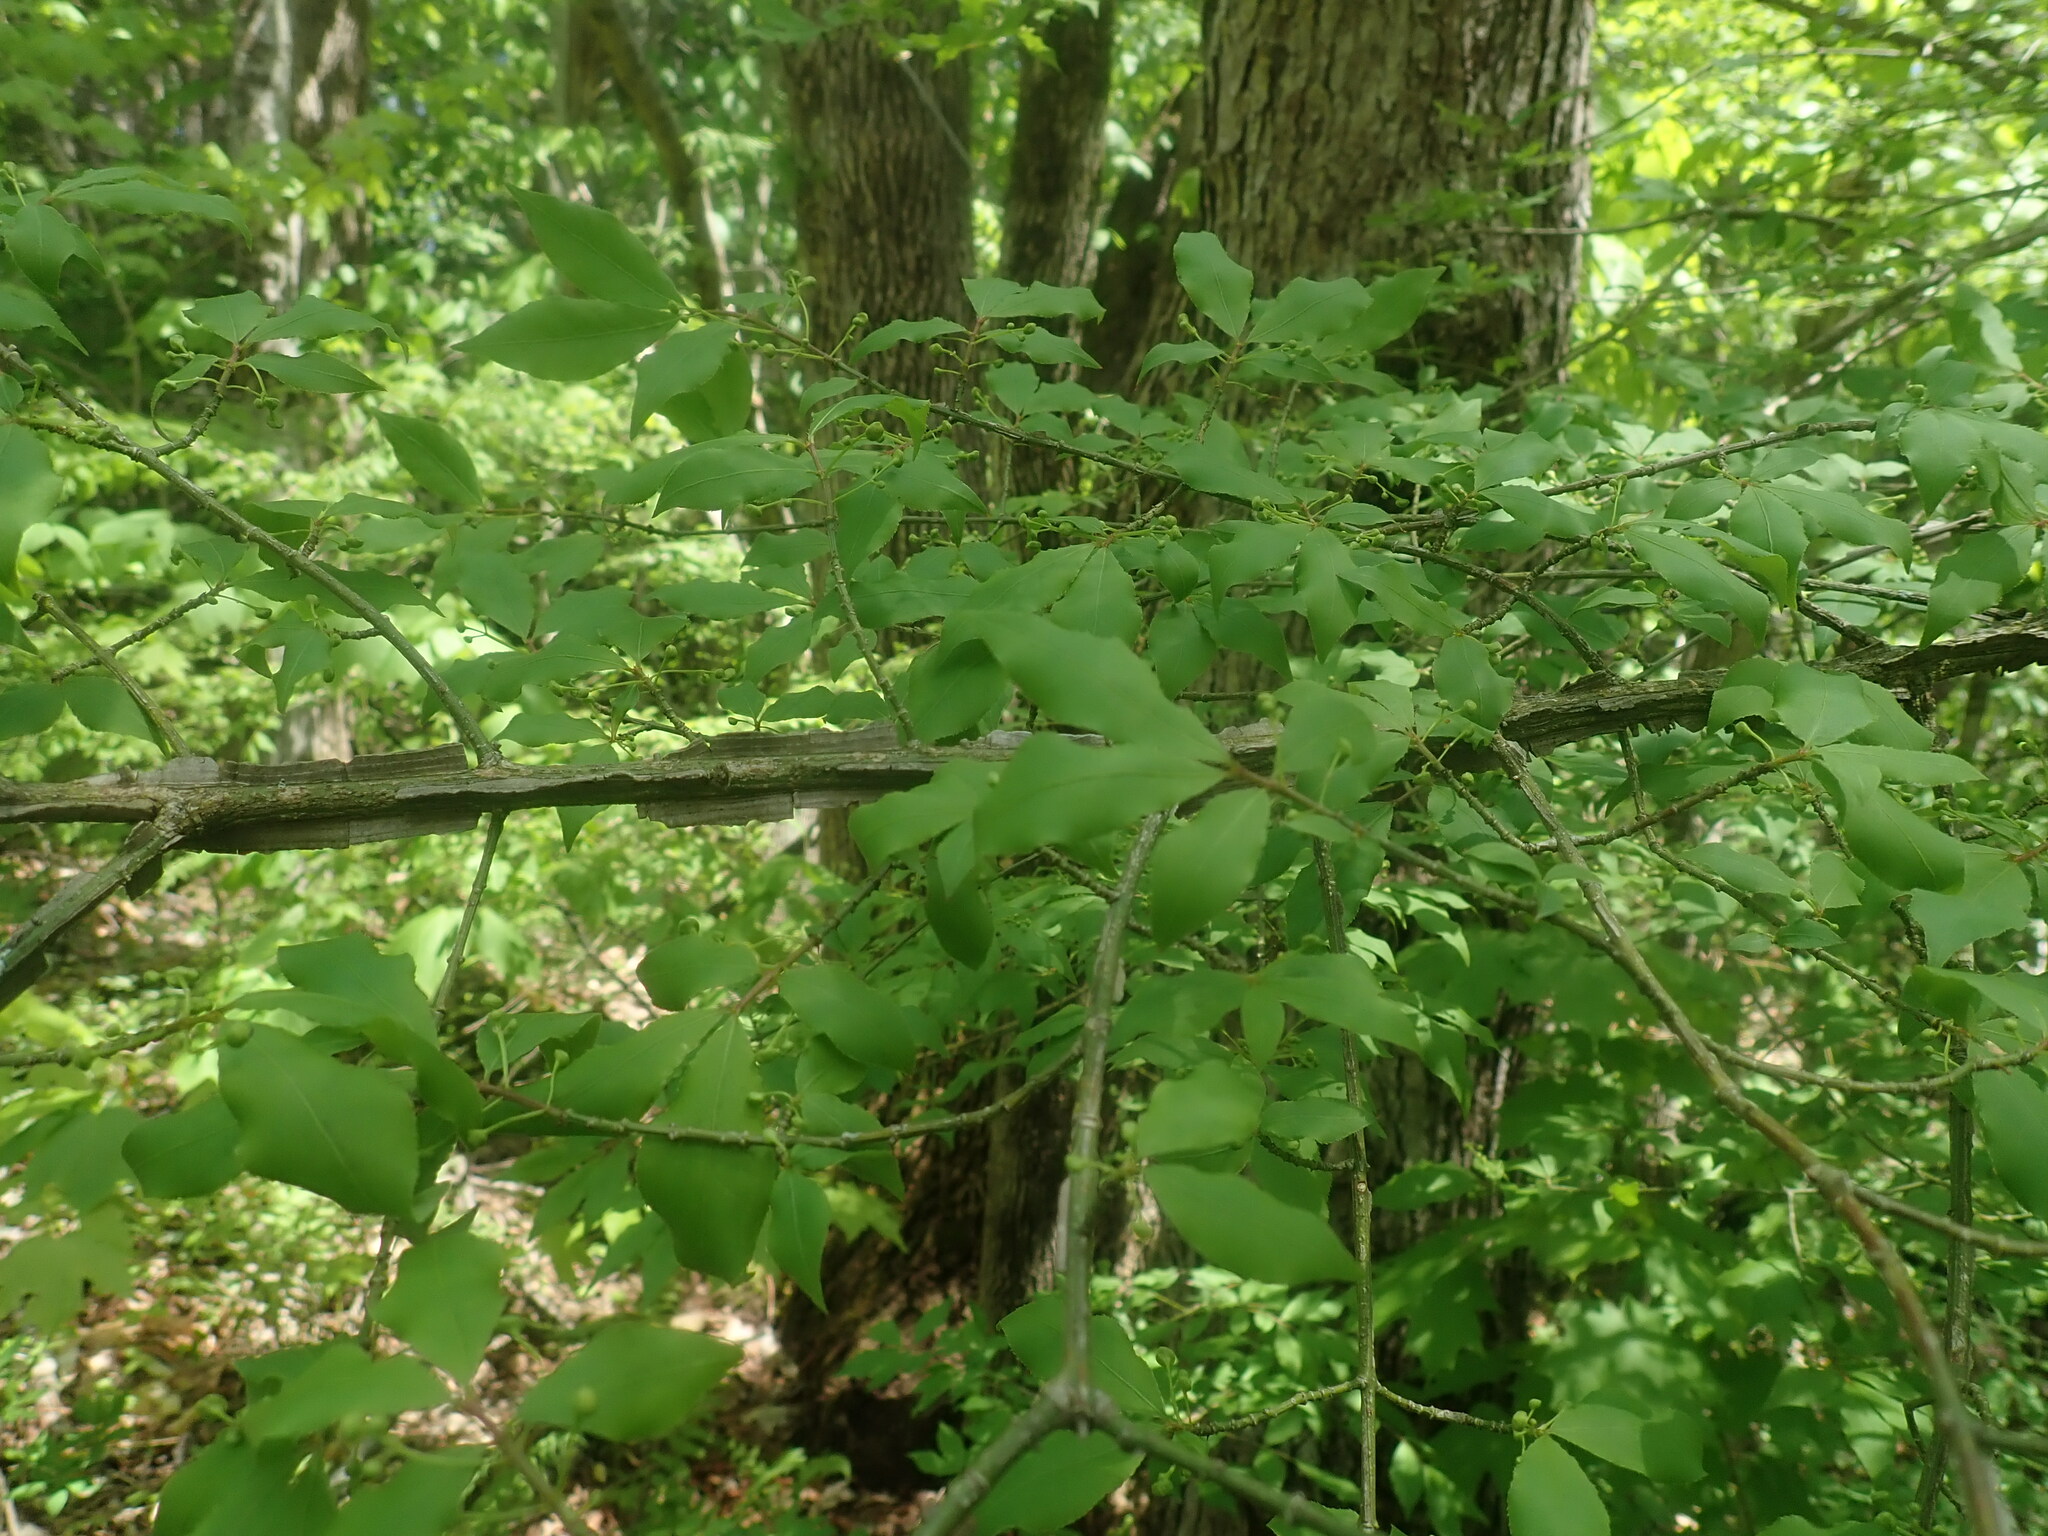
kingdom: Plantae
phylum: Tracheophyta
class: Magnoliopsida
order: Celastrales
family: Celastraceae
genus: Euonymus
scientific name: Euonymus alatus
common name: Winged euonymus
